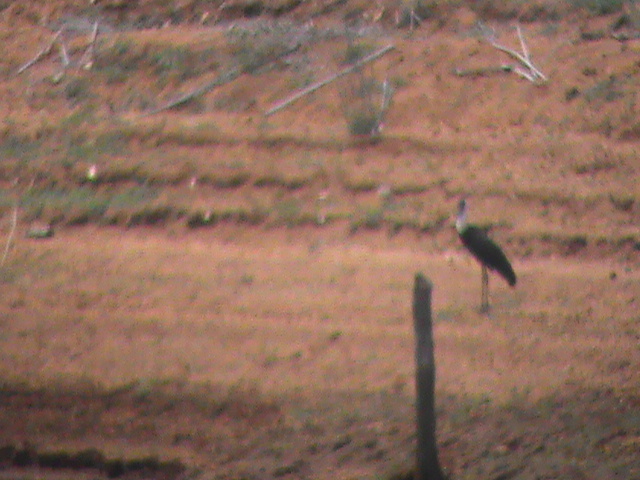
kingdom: Animalia
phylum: Chordata
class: Aves
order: Ciconiiformes
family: Ciconiidae
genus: Ciconia
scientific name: Ciconia episcopus
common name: Woolly-necked stork
